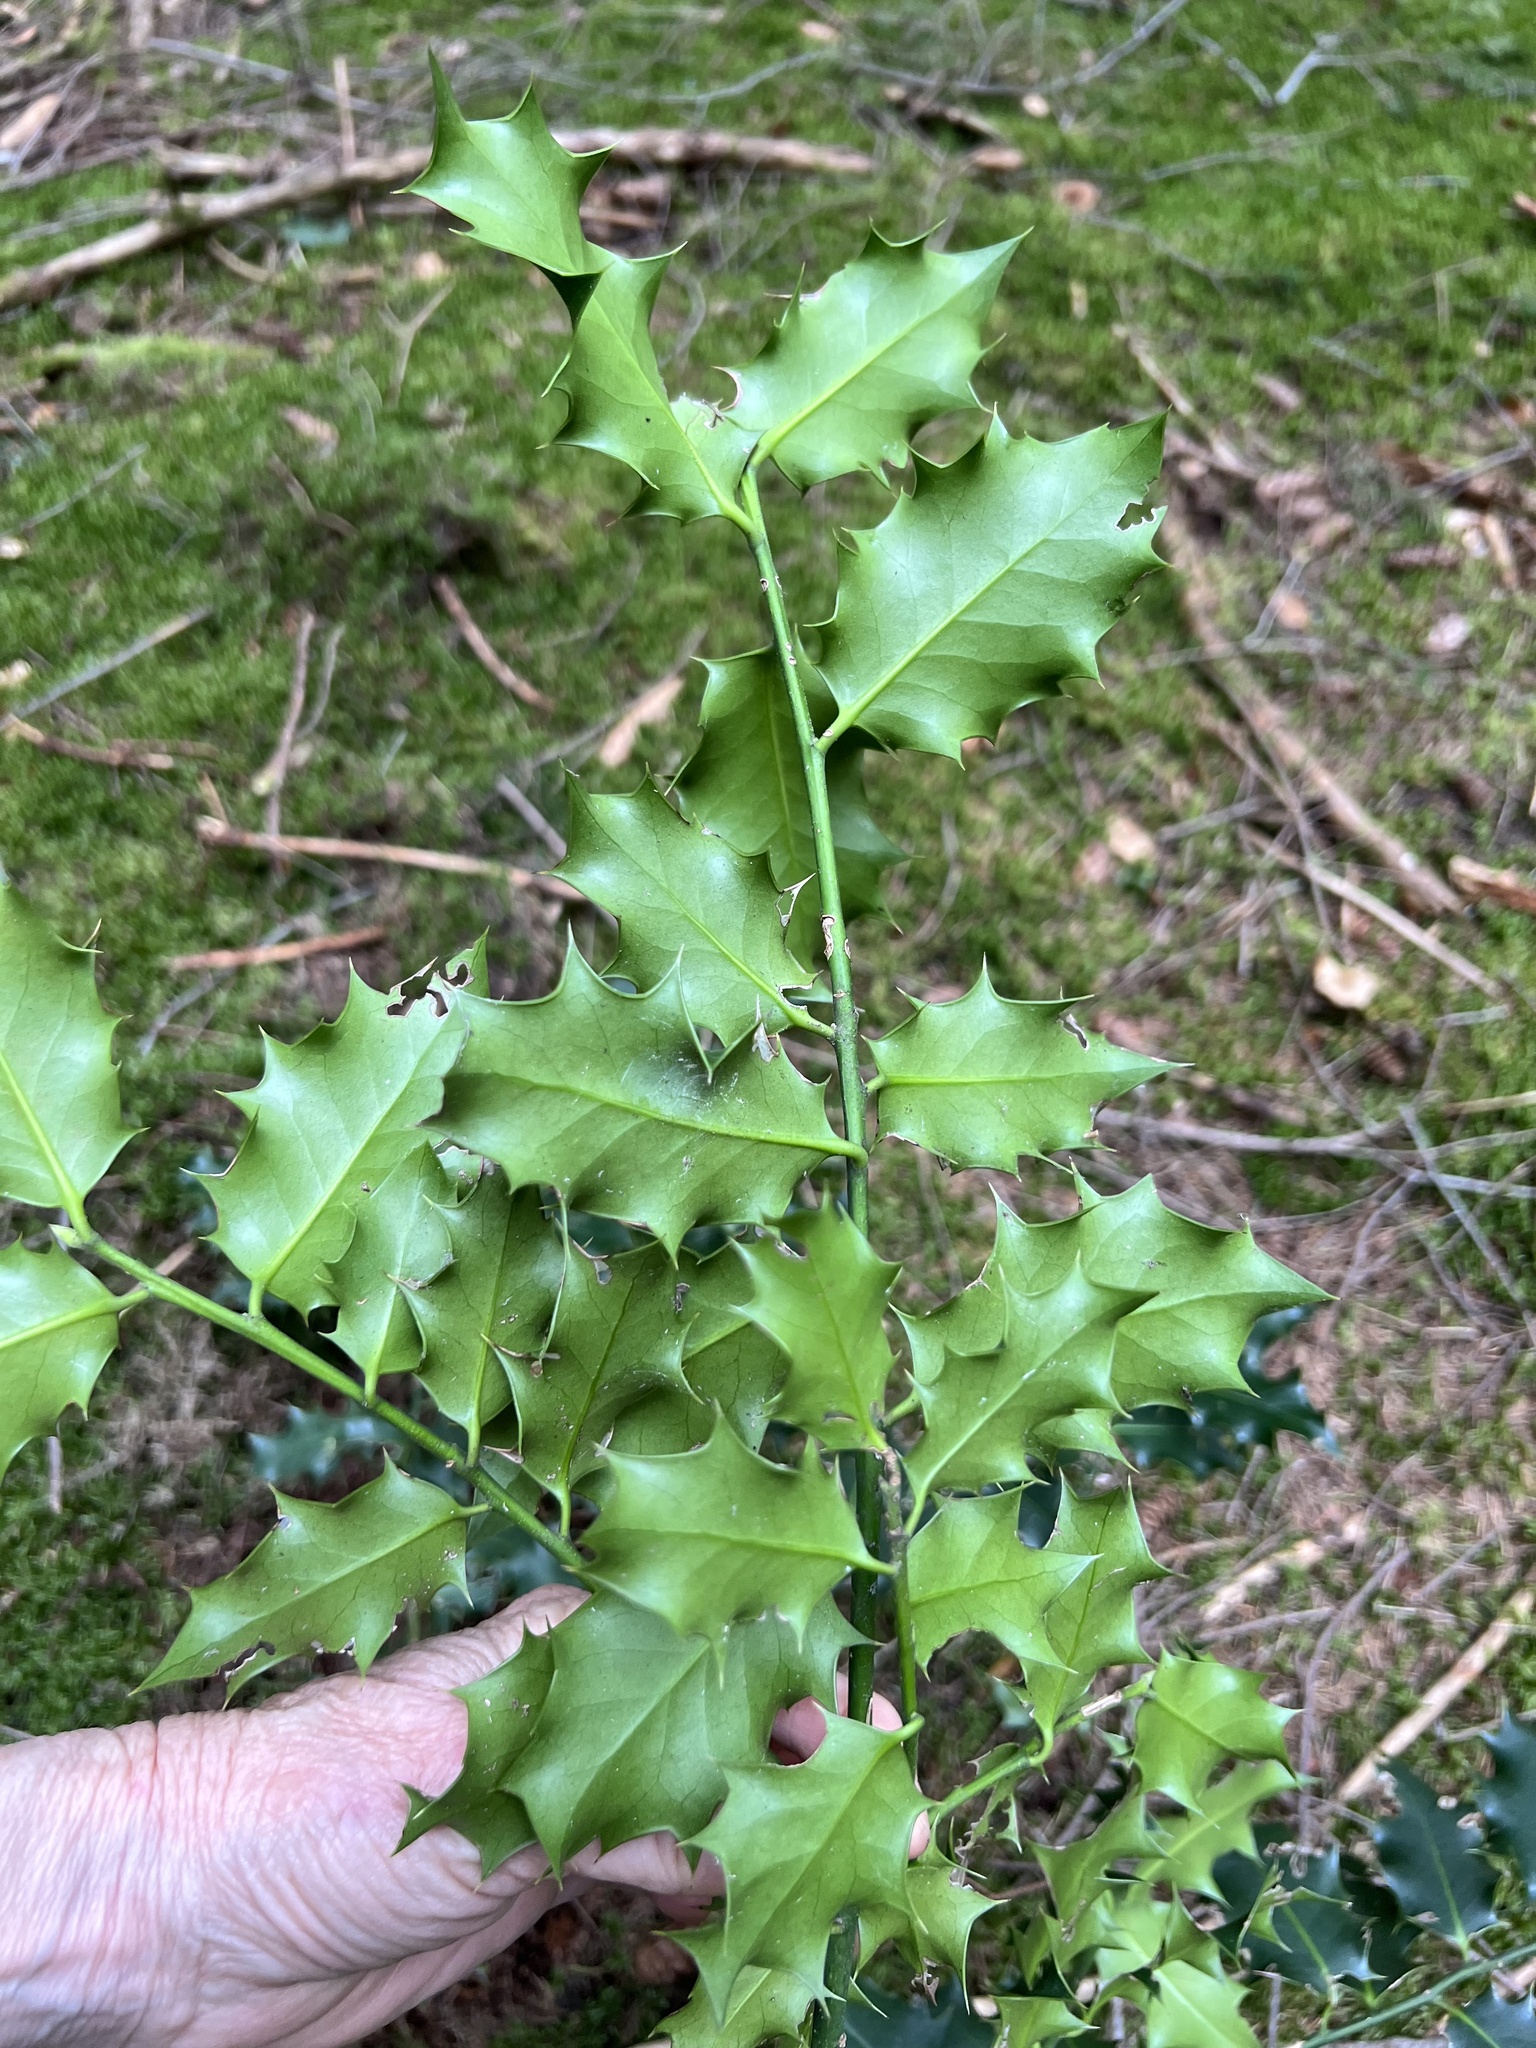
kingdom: Plantae
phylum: Tracheophyta
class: Magnoliopsida
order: Aquifoliales
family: Aquifoliaceae
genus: Ilex
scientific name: Ilex aquifolium
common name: English holly
